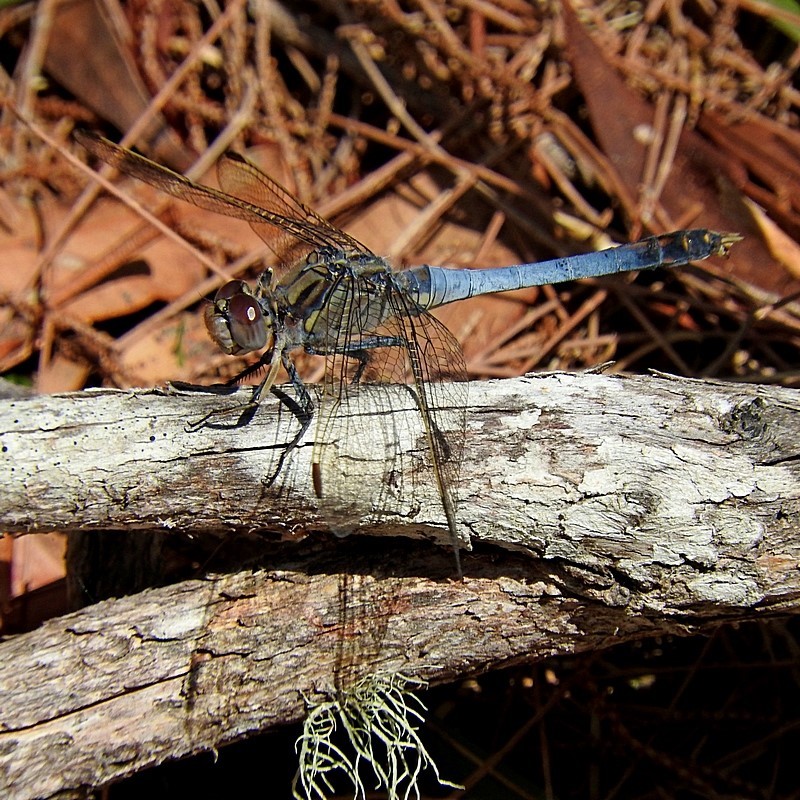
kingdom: Animalia
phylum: Arthropoda
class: Insecta
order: Odonata
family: Libellulidae
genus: Orthetrum
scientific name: Orthetrum caledonicum
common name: Blue skimmer
